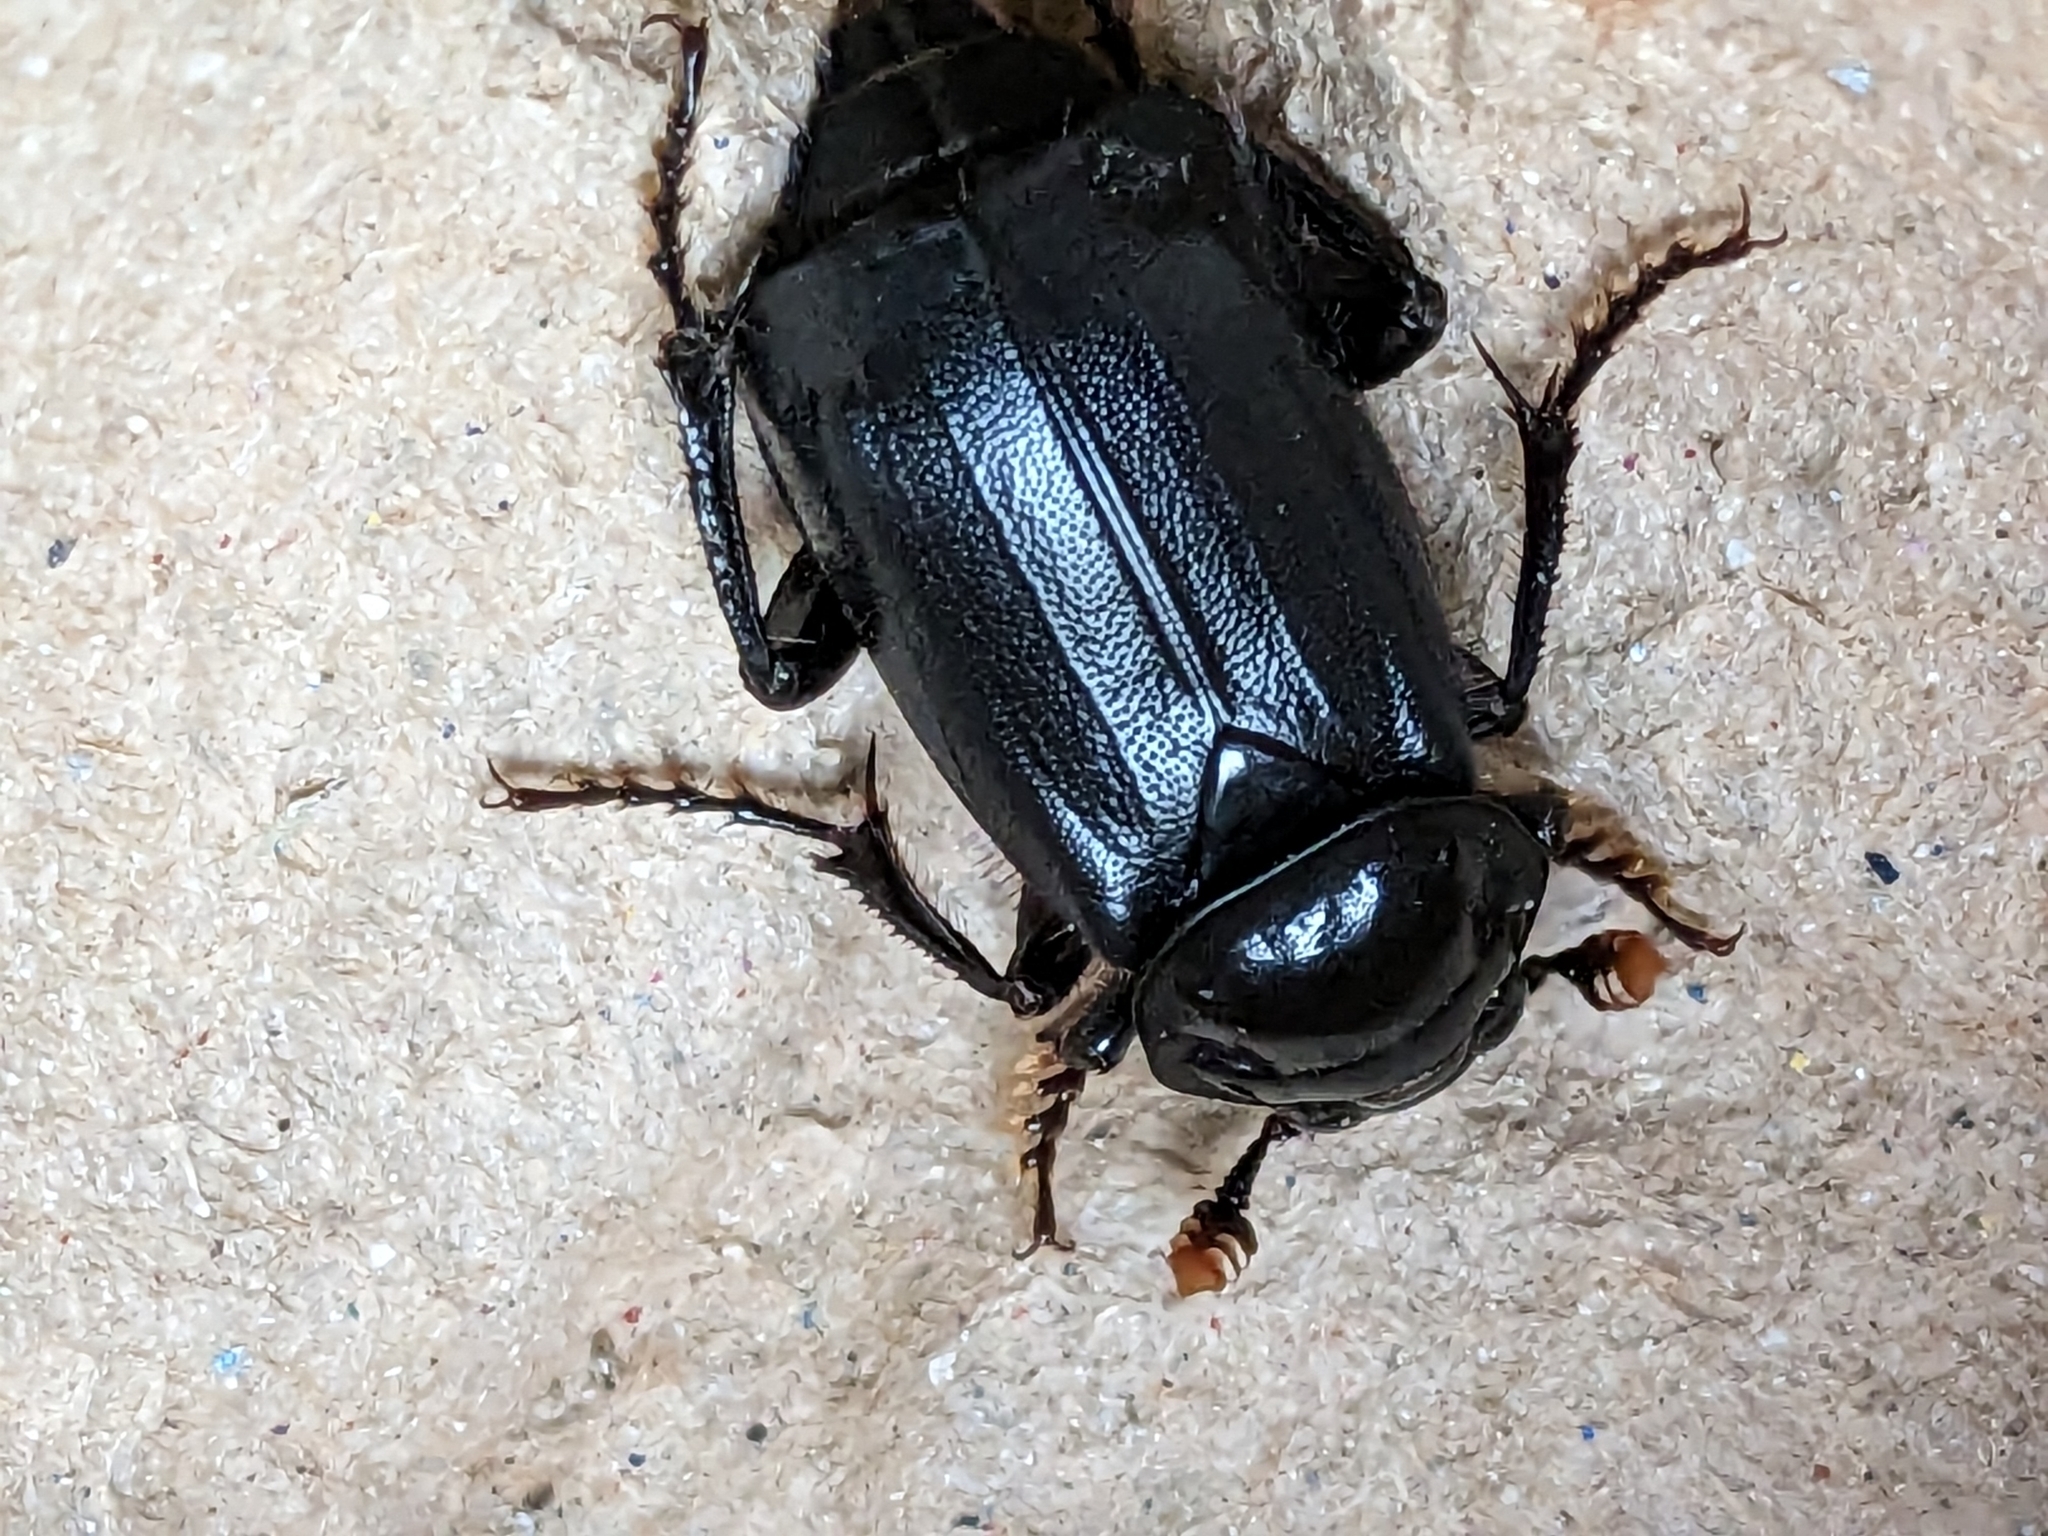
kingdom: Animalia
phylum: Arthropoda
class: Insecta
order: Coleoptera
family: Staphylinidae
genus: Nicrophorus
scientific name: Nicrophorus humator
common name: Black sexton beetle
